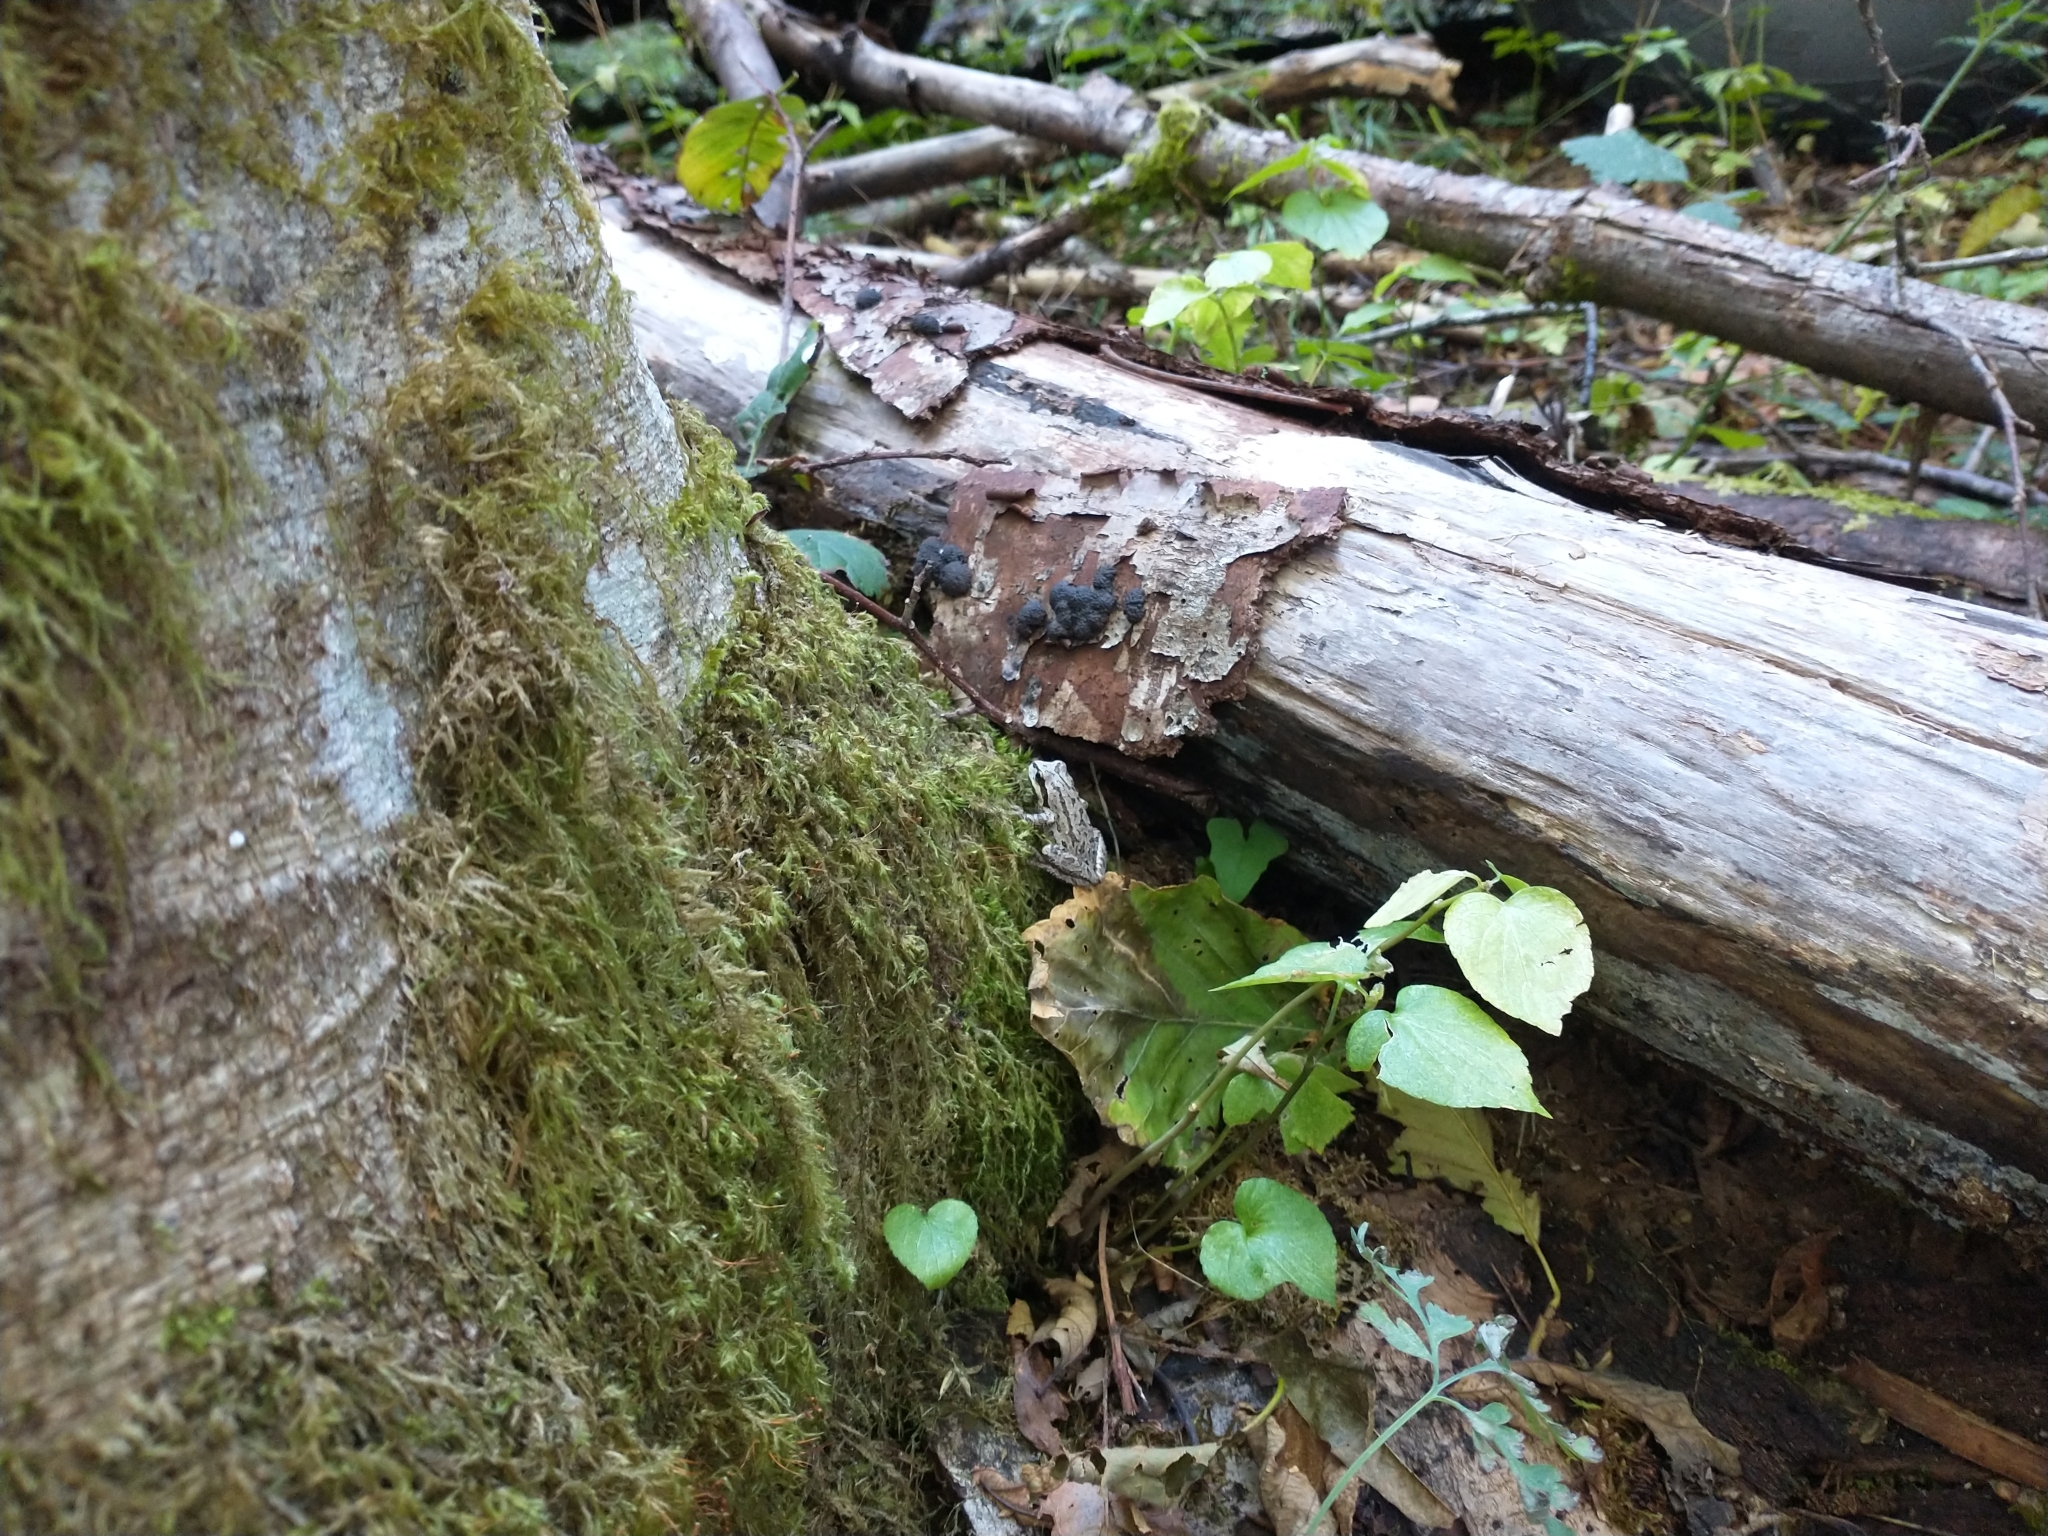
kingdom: Animalia
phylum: Chordata
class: Amphibia
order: Anura
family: Hylidae
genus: Pseudacris
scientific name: Pseudacris regilla
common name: Pacific chorus frog
